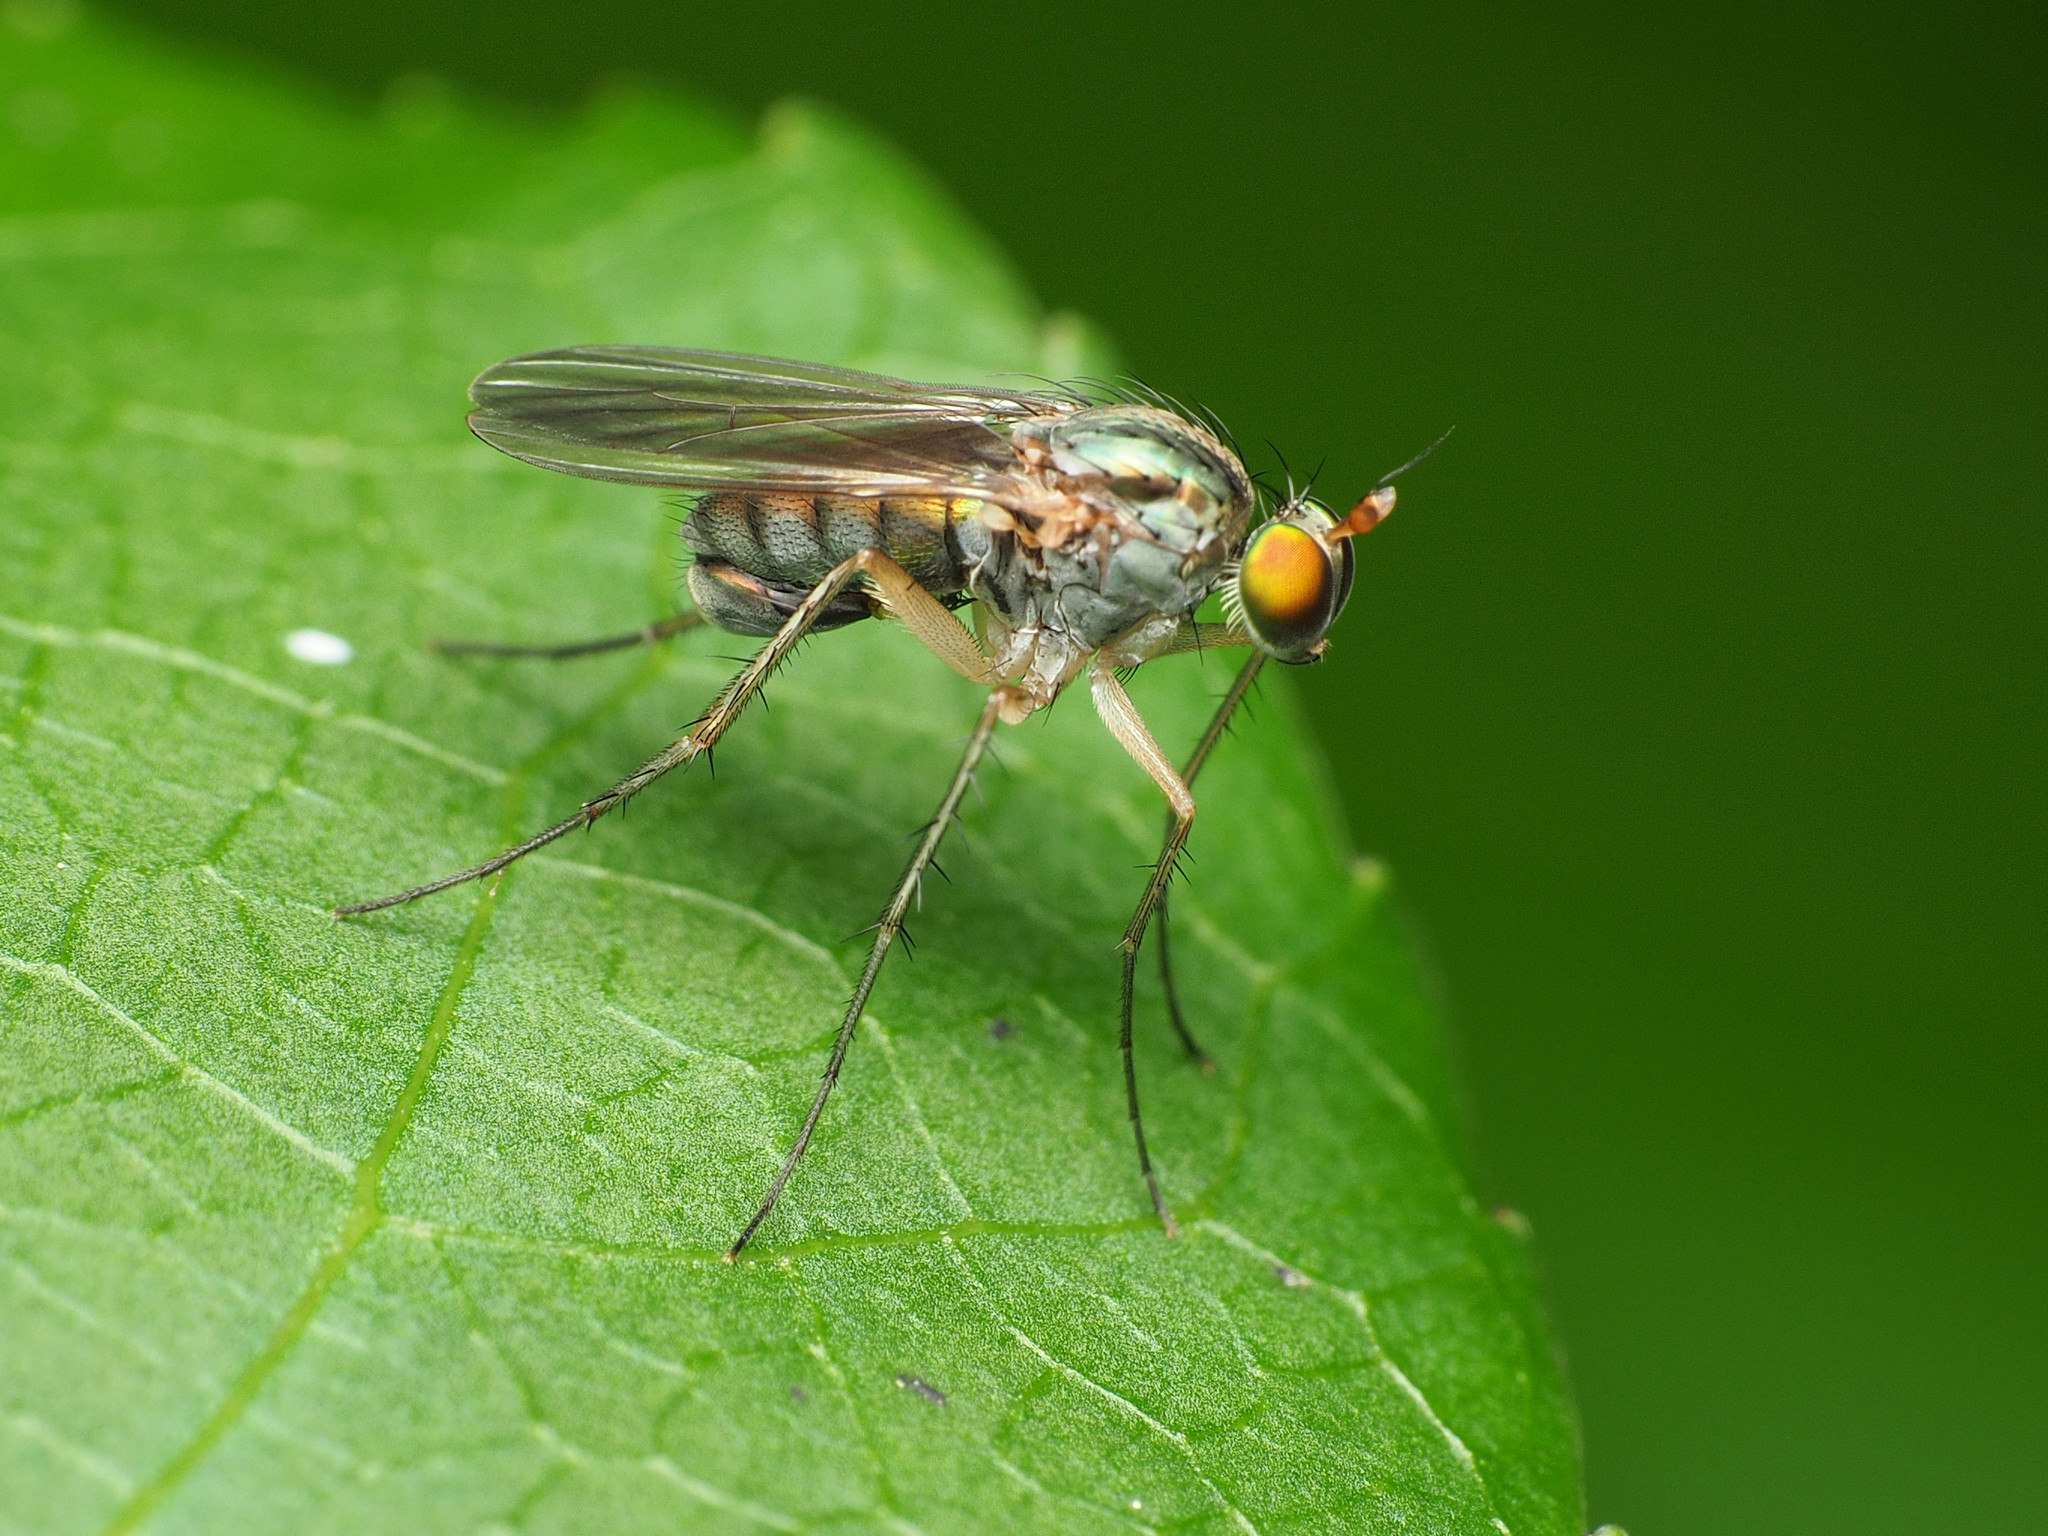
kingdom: Animalia
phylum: Arthropoda
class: Insecta
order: Diptera
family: Dolichopodidae
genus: Dolichopus
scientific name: Dolichopus scapularis
